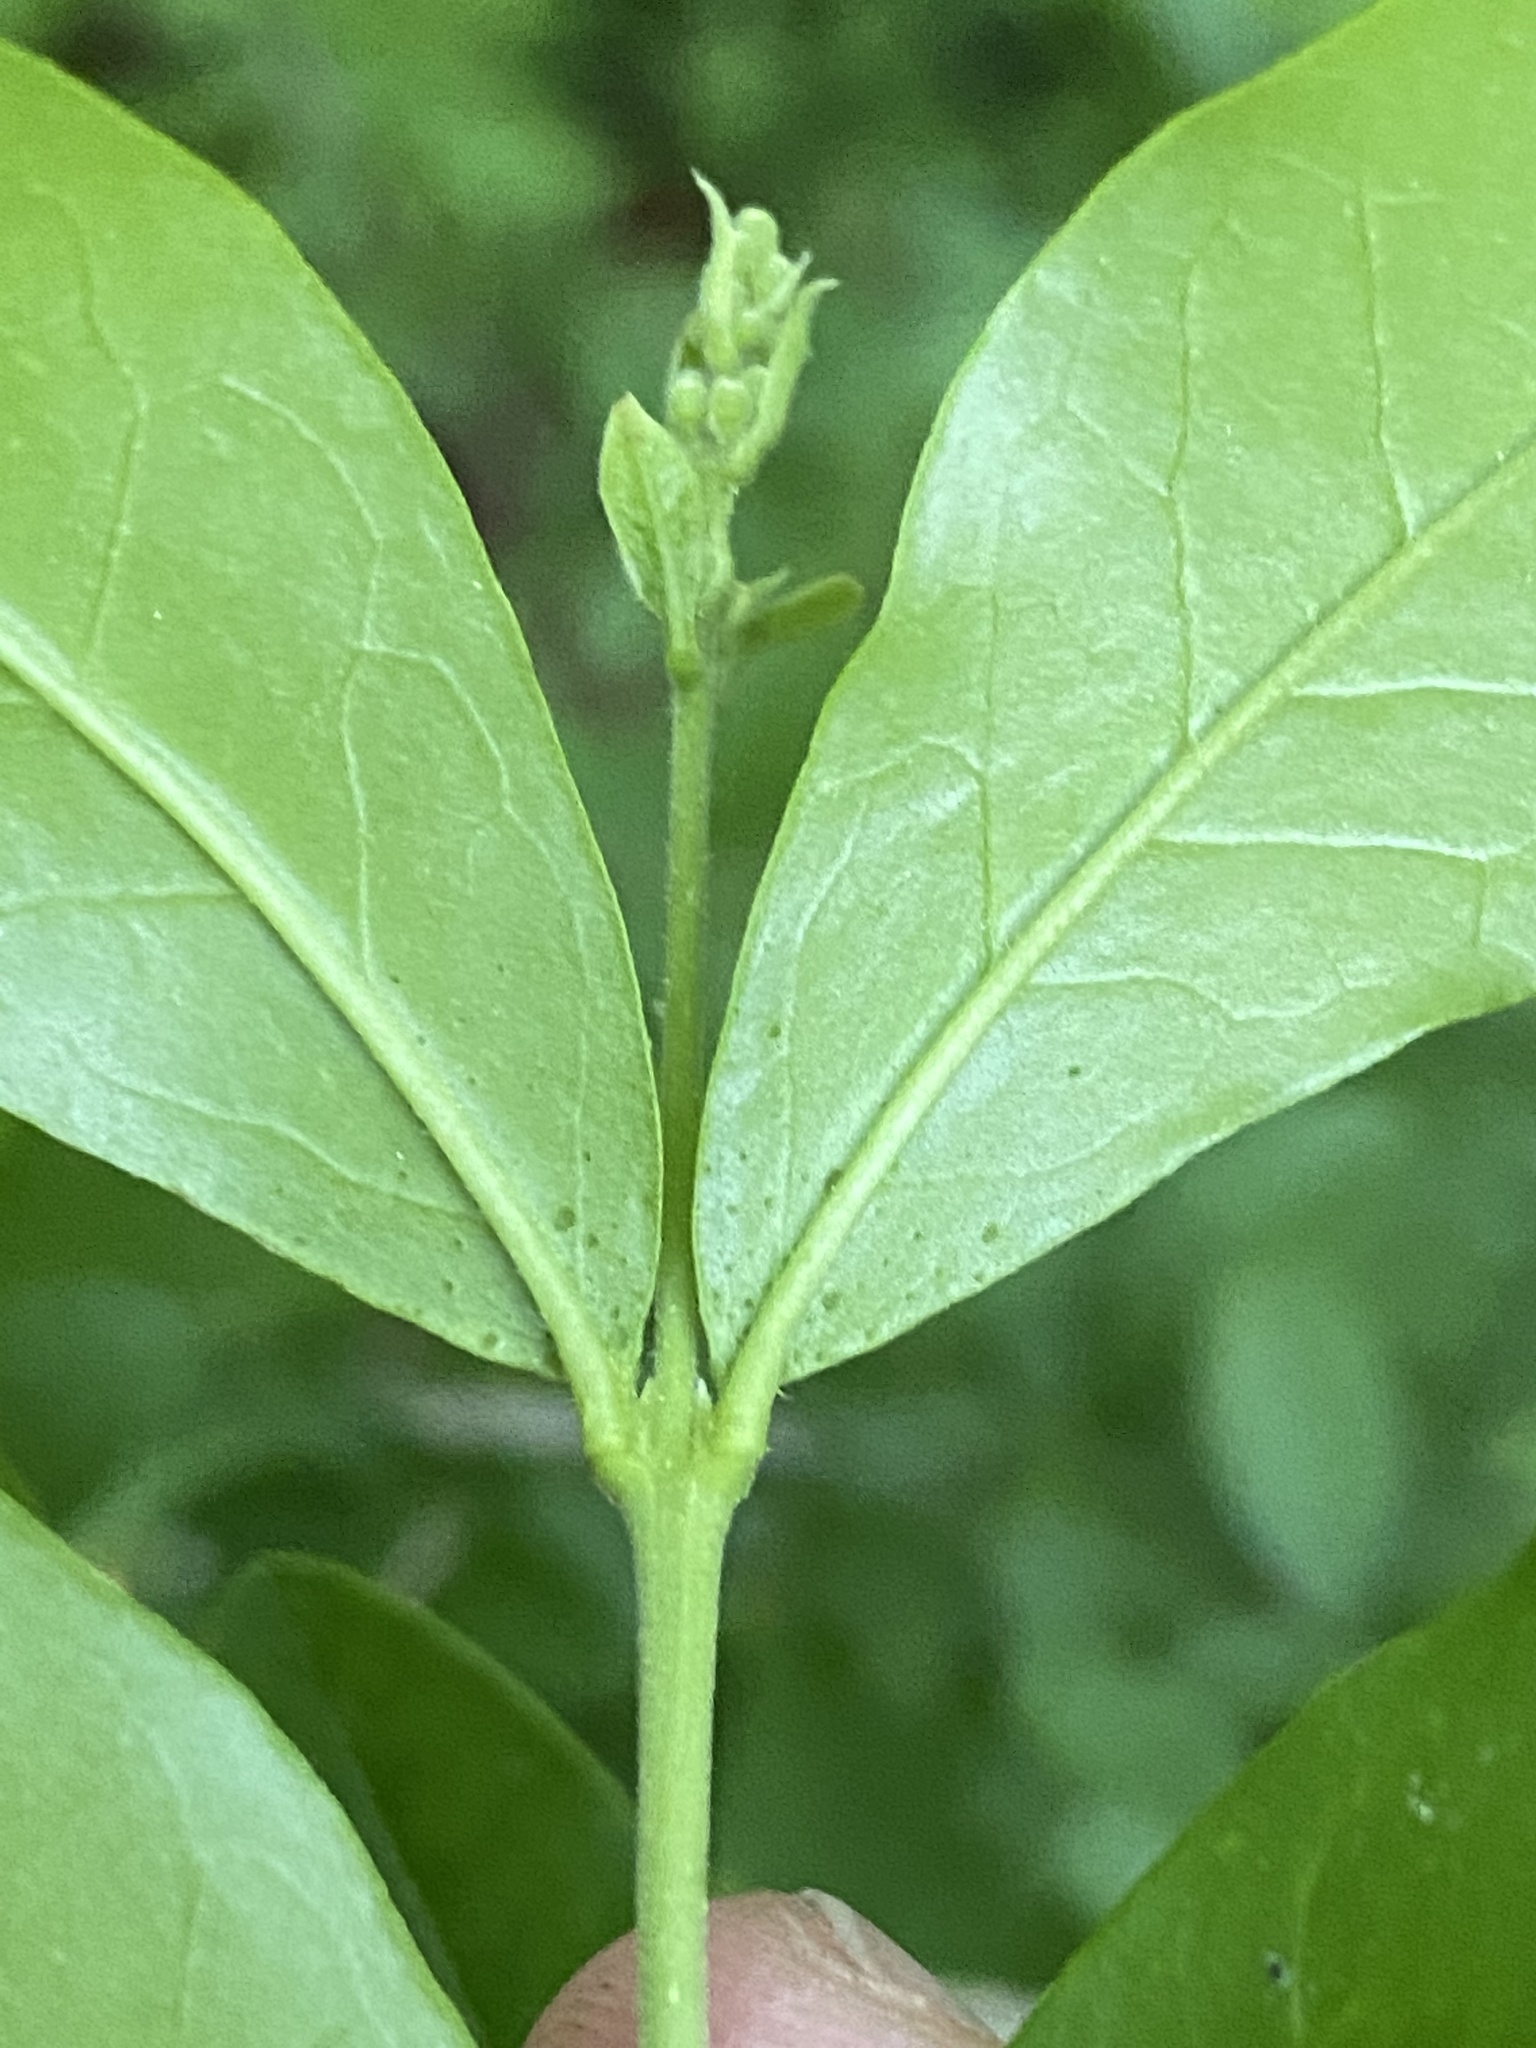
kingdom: Plantae
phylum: Tracheophyta
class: Magnoliopsida
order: Lamiales
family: Oleaceae
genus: Ligustrum
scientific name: Ligustrum obtusifolium
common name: Border privet
